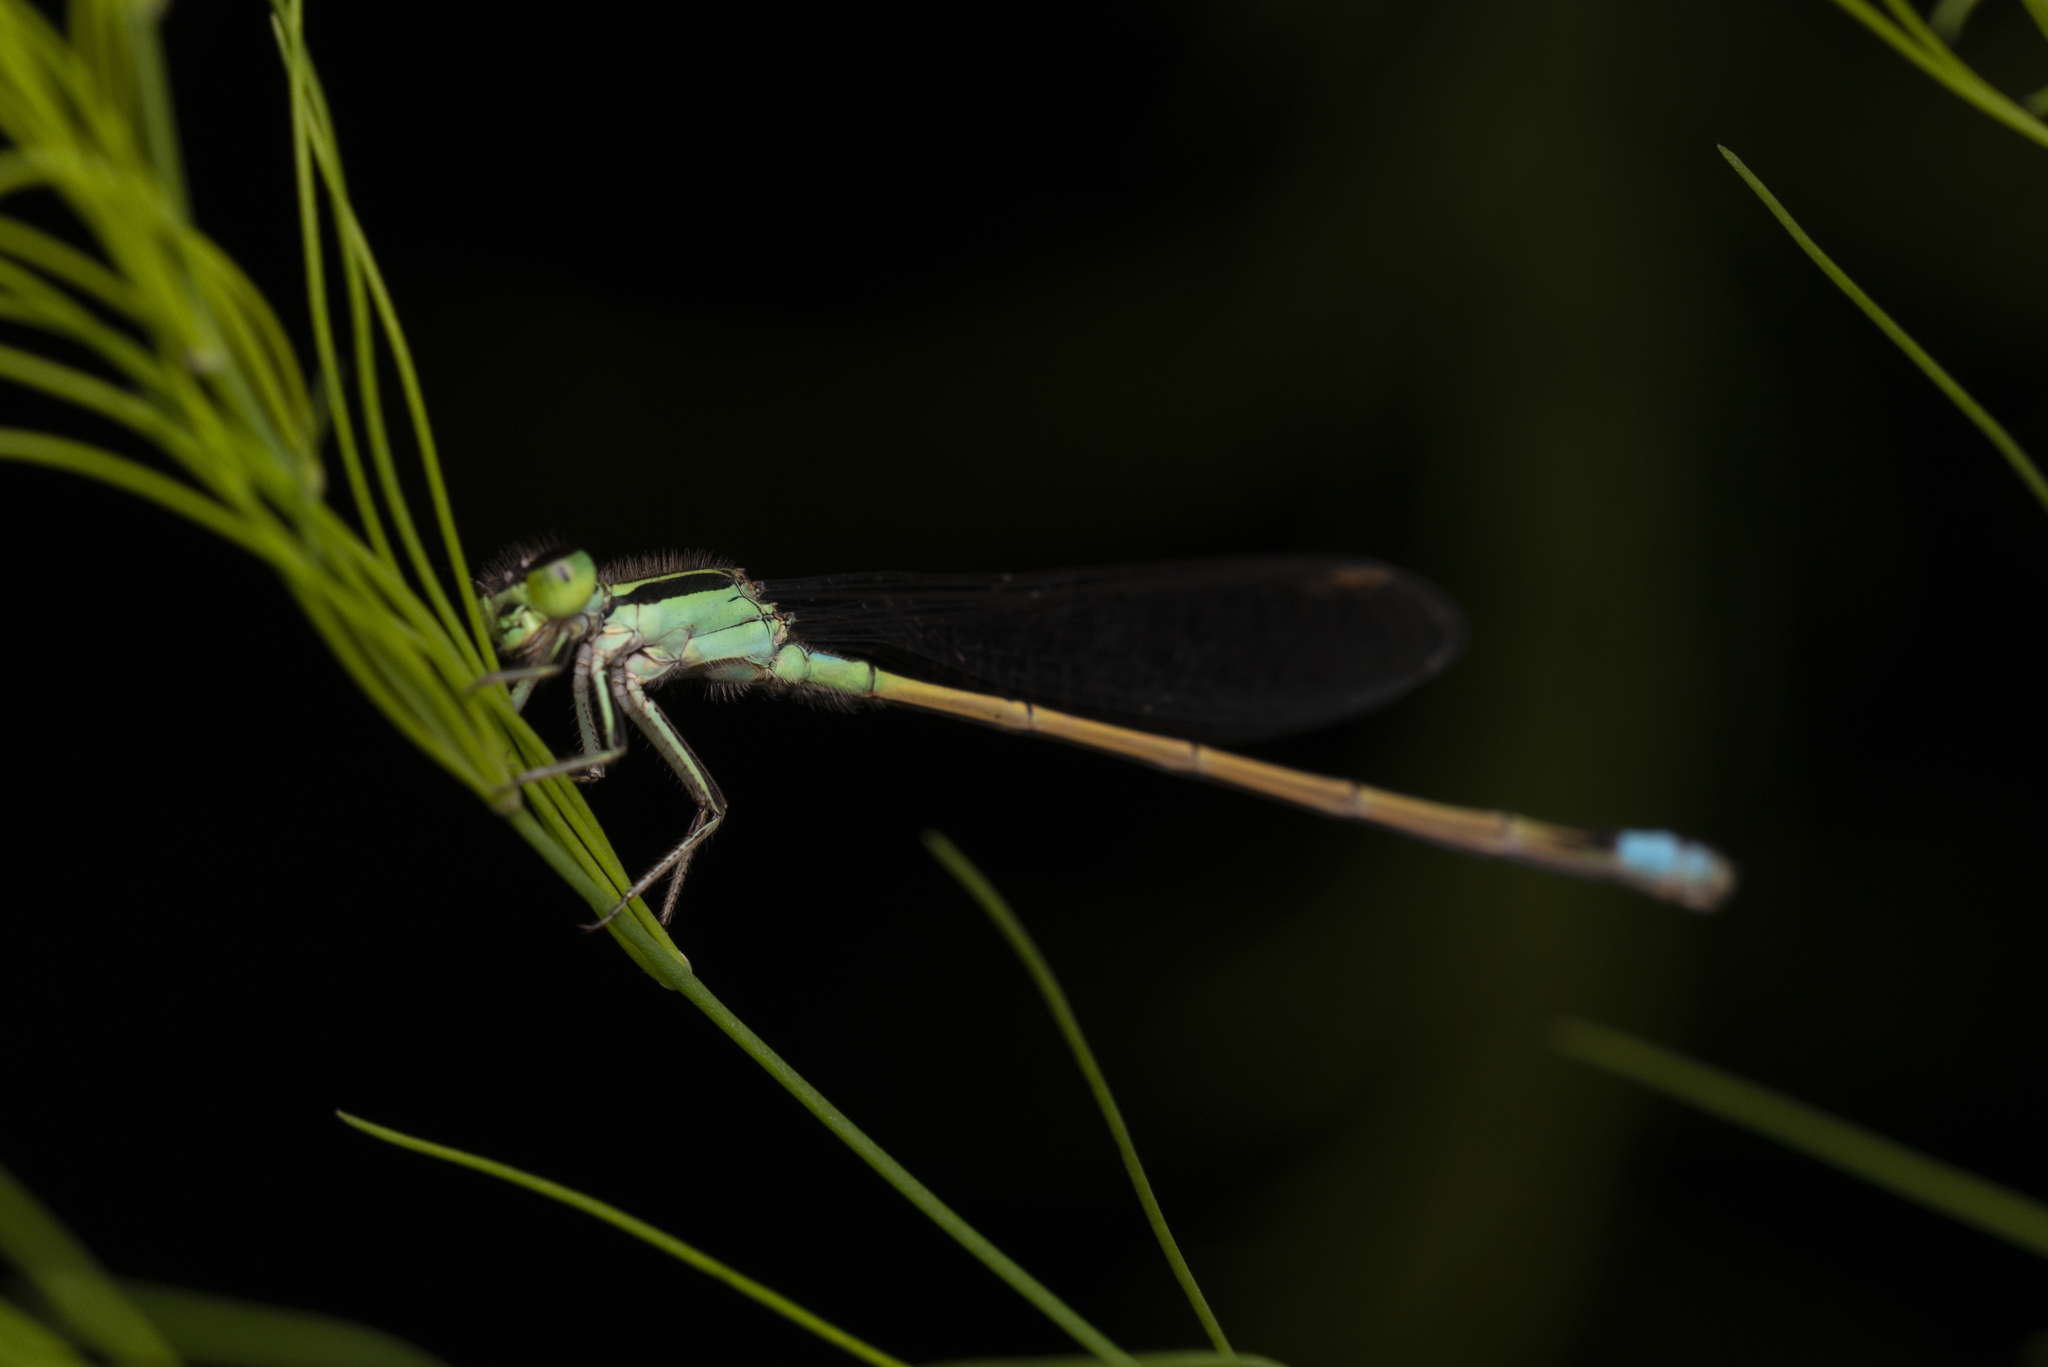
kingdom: Animalia
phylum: Arthropoda
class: Insecta
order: Odonata
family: Coenagrionidae
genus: Ischnura
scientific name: Ischnura senegalensis
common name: Tropical bluetail
